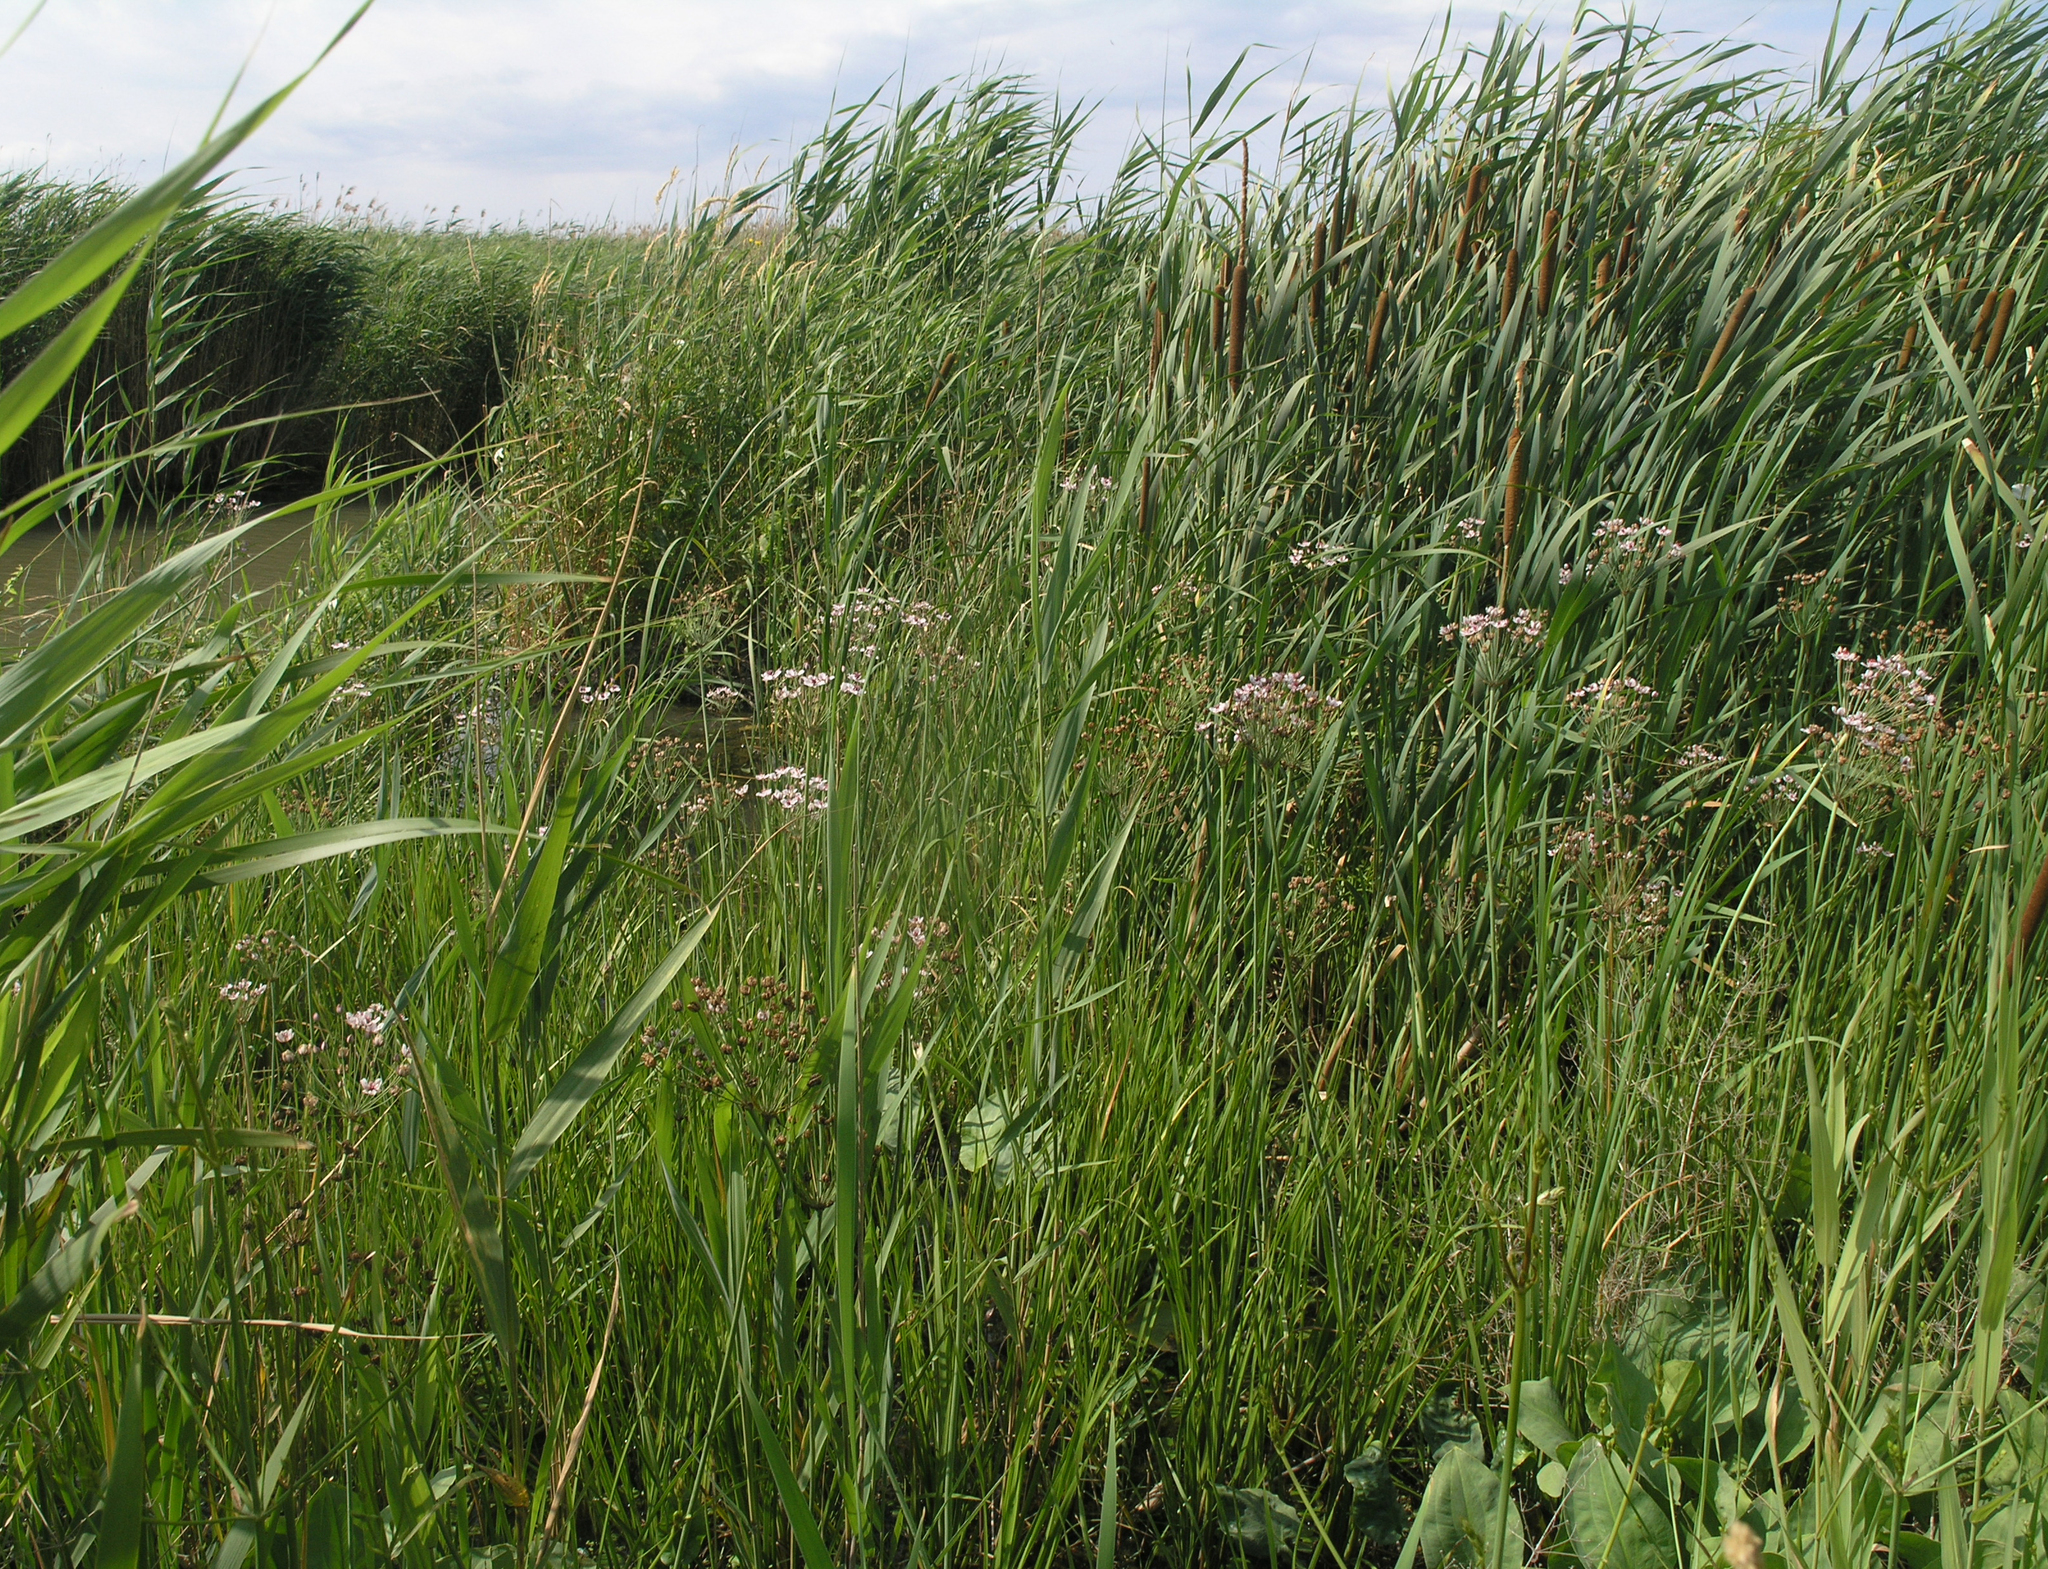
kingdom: Plantae
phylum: Tracheophyta
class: Liliopsida
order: Alismatales
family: Butomaceae
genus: Butomus
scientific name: Butomus umbellatus
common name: Flowering-rush
